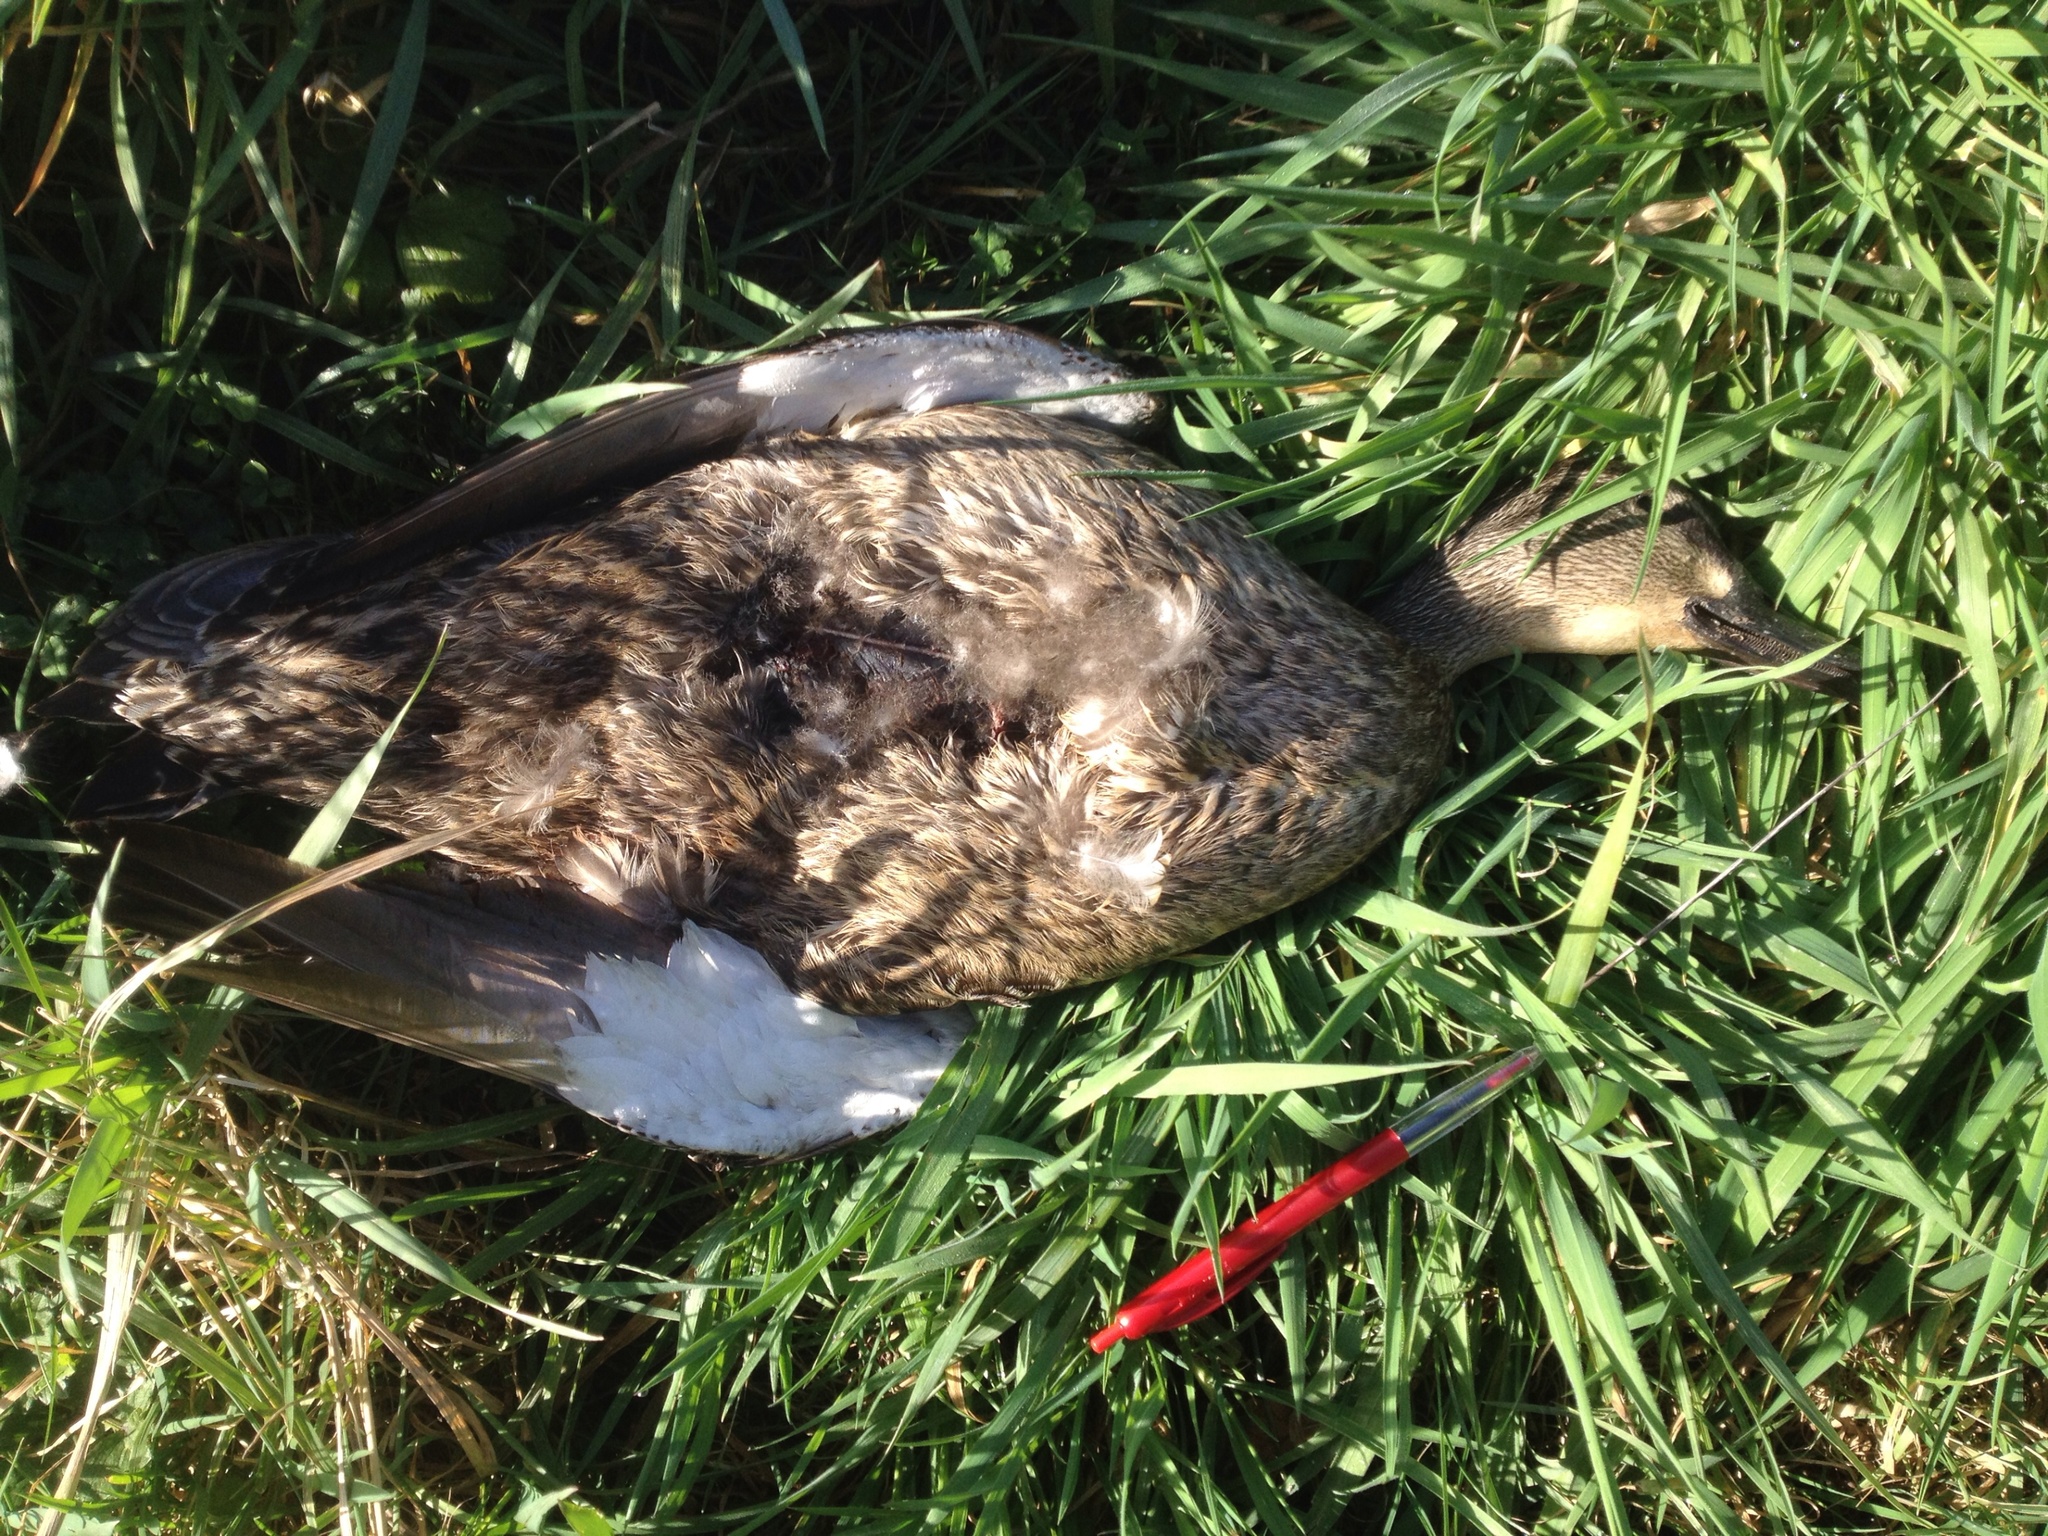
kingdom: Animalia
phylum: Chordata
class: Aves
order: Anseriformes
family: Anatidae
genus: Anas
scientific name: Anas platyrhynchos
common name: Mallard
